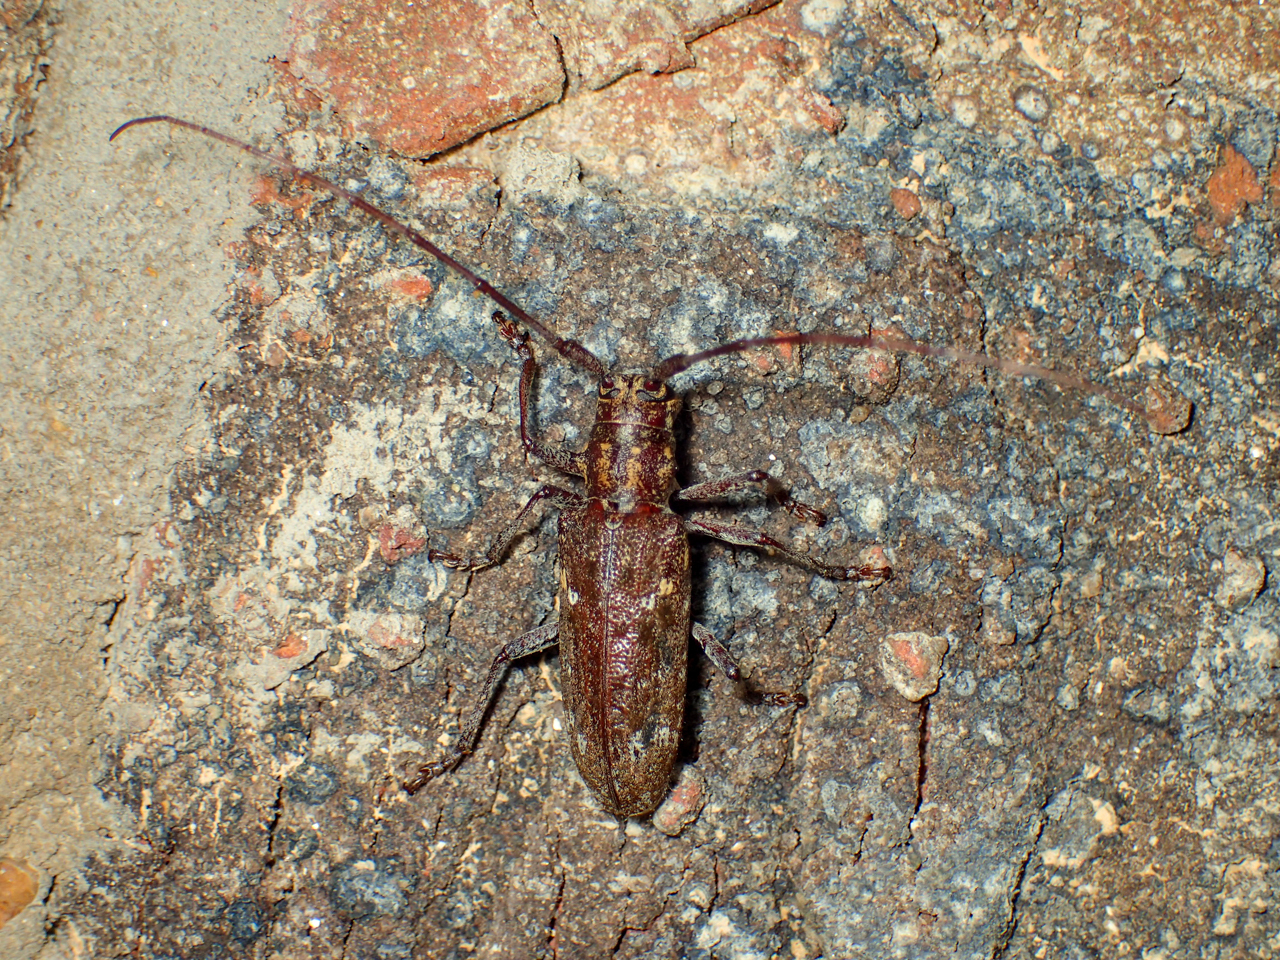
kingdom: Animalia
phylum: Arthropoda
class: Insecta
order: Coleoptera
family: Cerambycidae
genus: Monochamus
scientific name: Monochamus carolinensis
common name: Carolina pine sawyer
